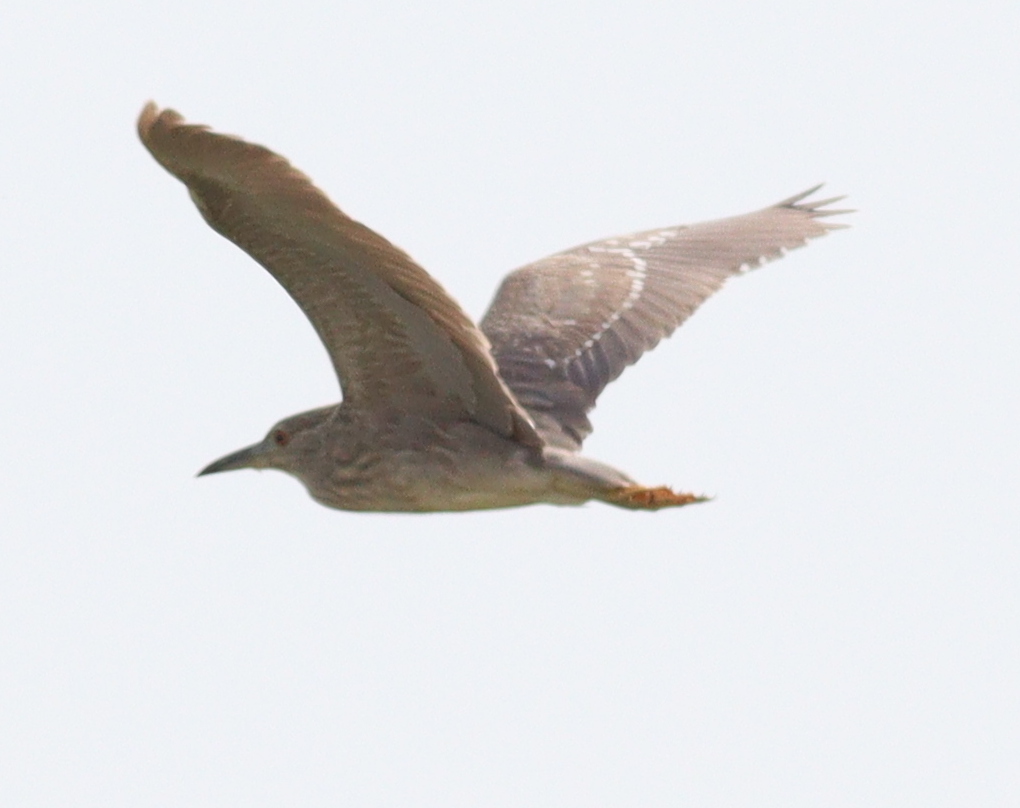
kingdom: Animalia
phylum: Chordata
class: Aves
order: Pelecaniformes
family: Ardeidae
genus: Nycticorax
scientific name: Nycticorax nycticorax
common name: Black-crowned night heron
